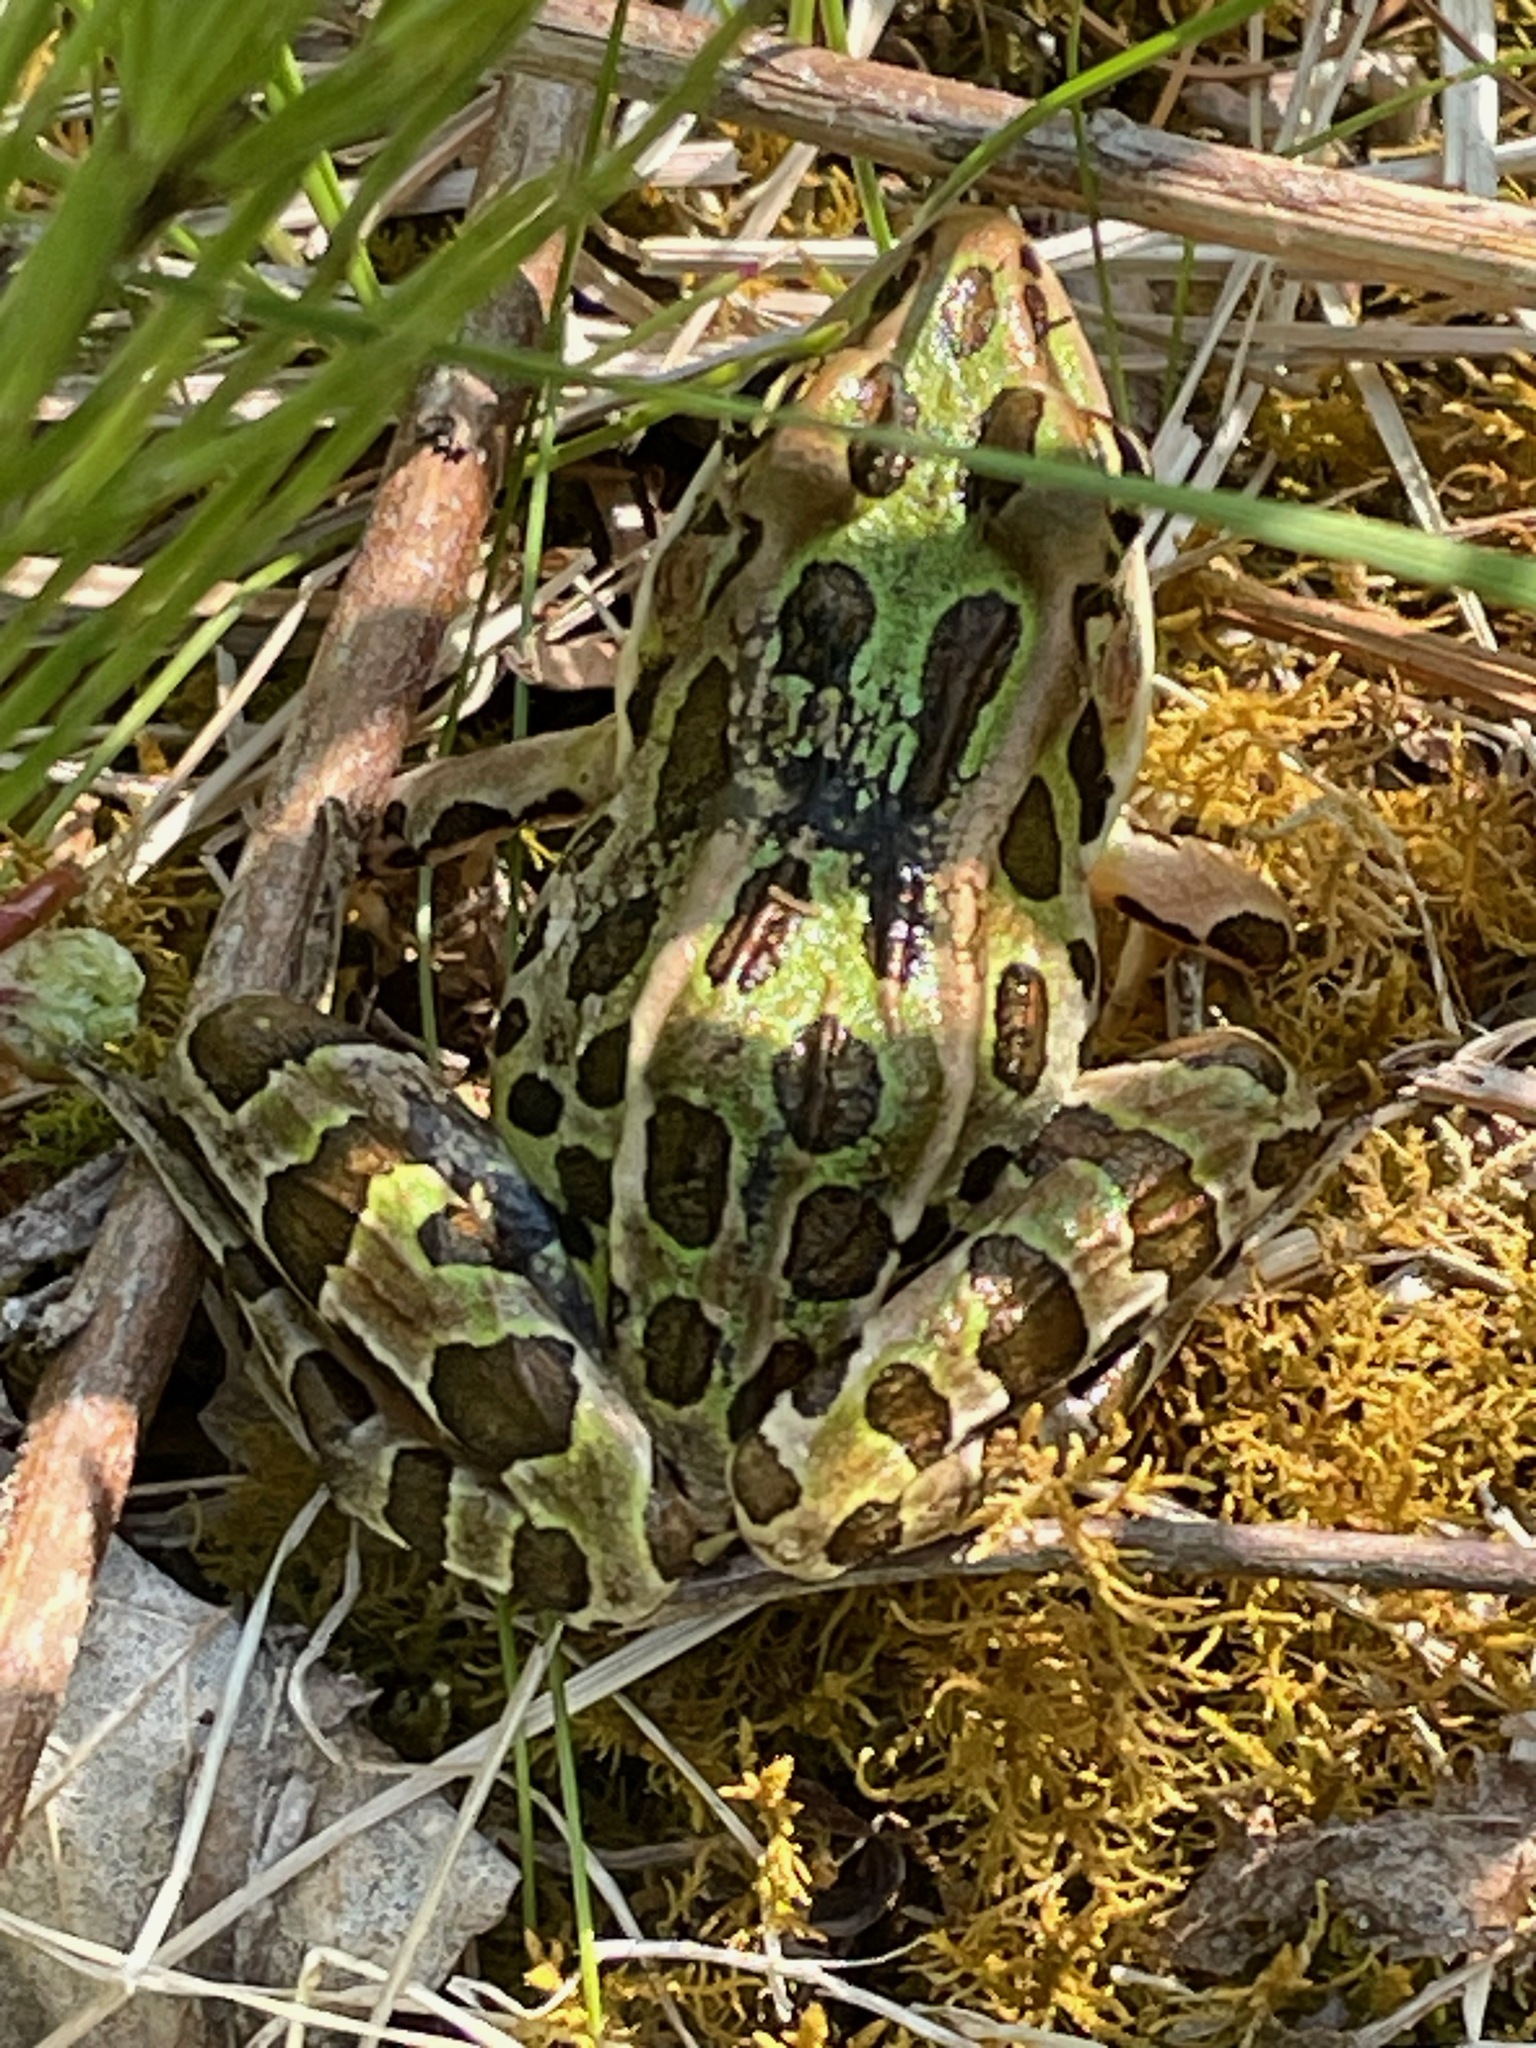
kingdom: Animalia
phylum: Chordata
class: Amphibia
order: Anura
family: Ranidae
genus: Lithobates
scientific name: Lithobates pipiens
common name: Northern leopard frog
